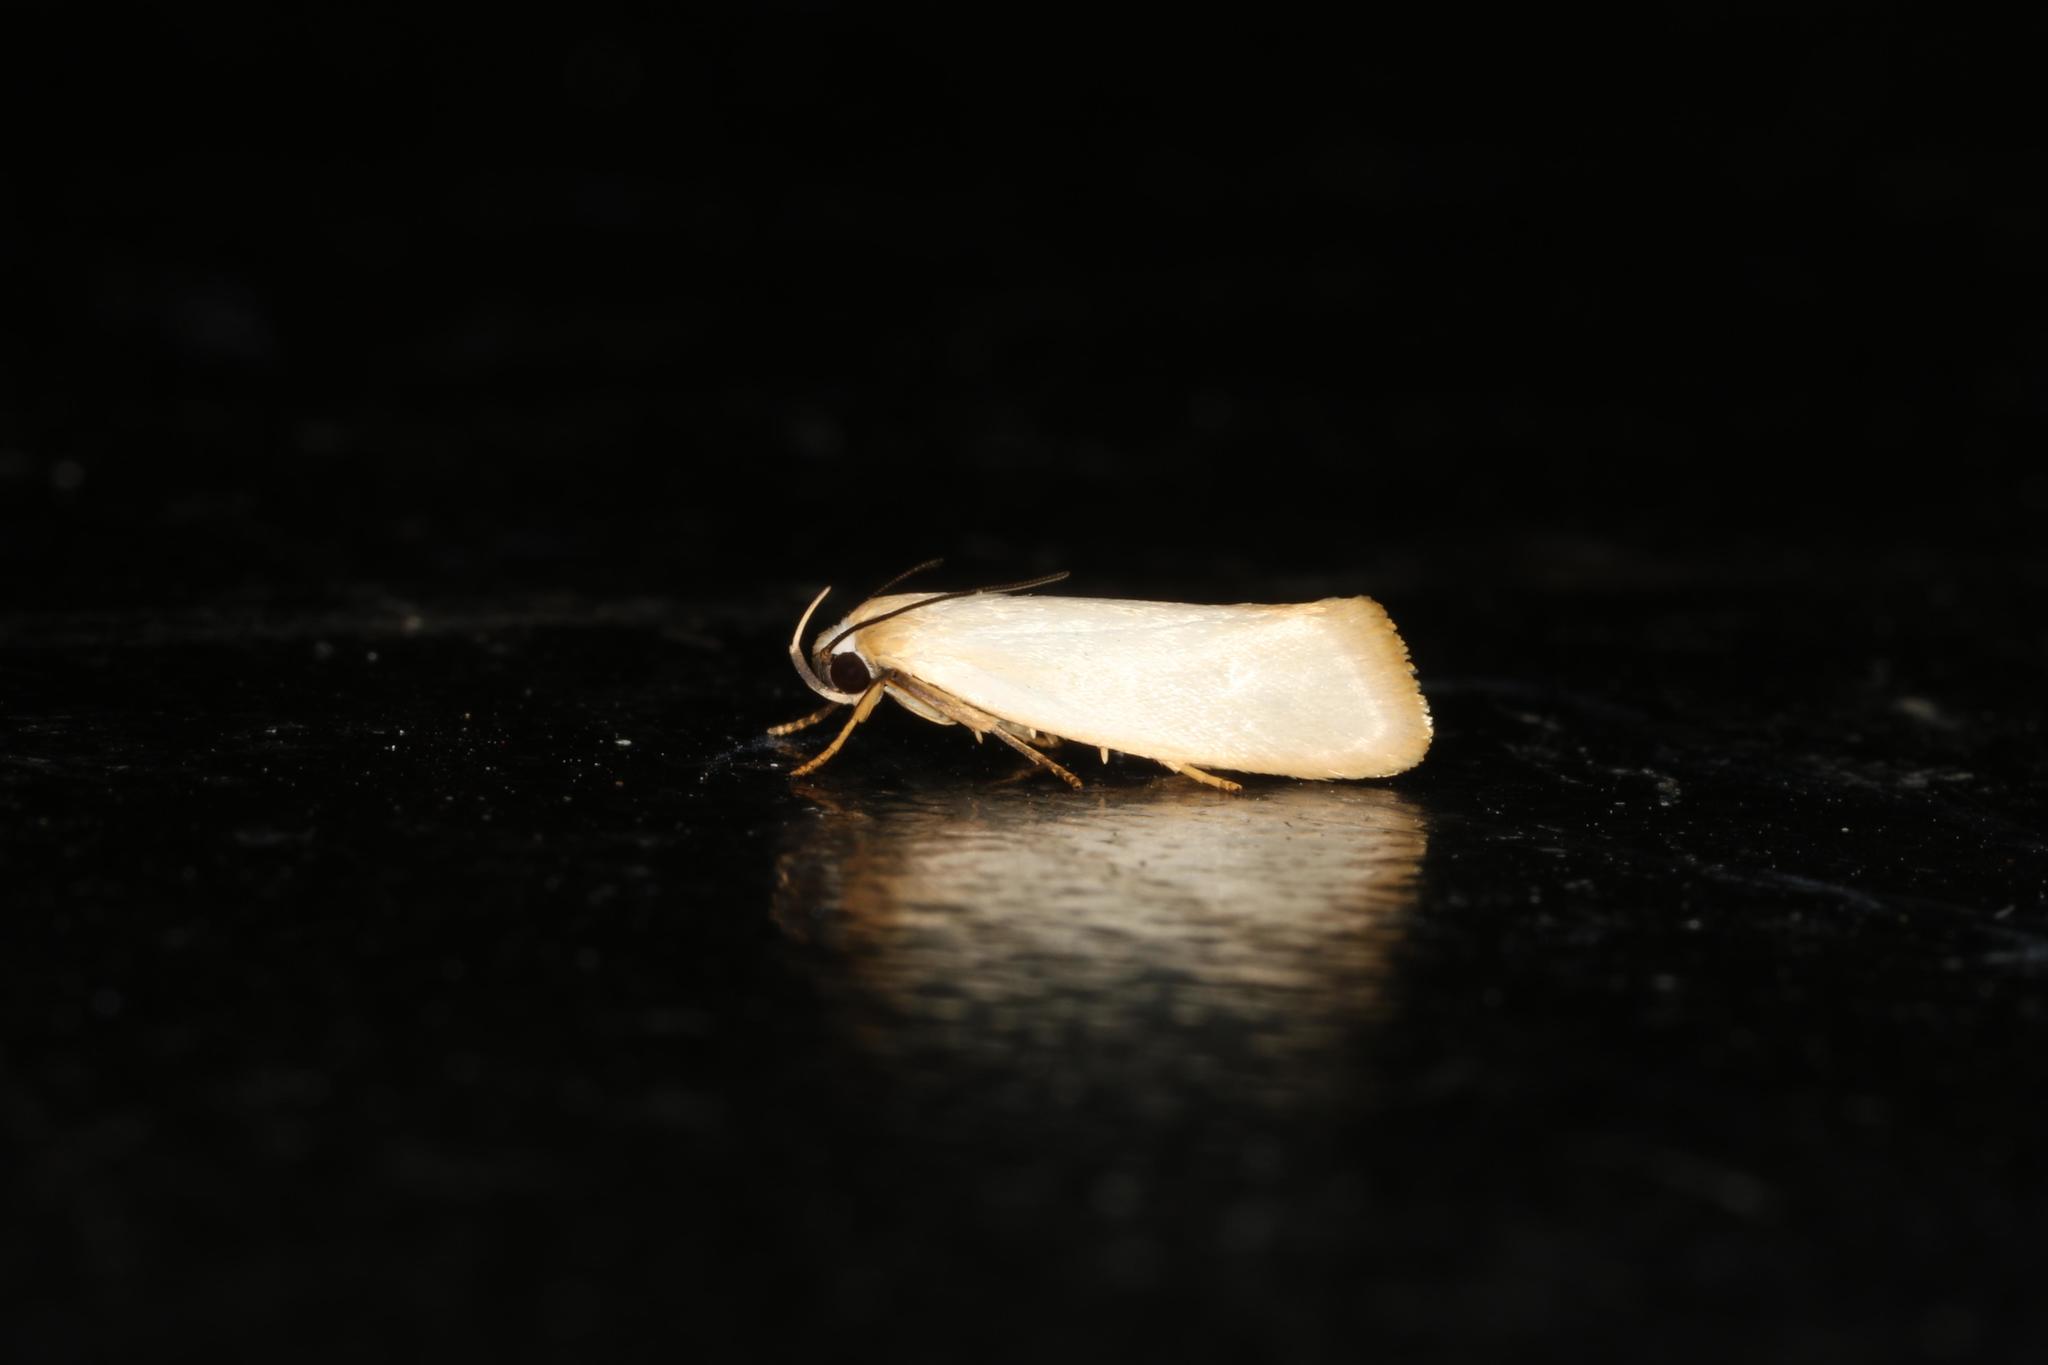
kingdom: Animalia
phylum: Arthropoda
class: Insecta
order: Lepidoptera
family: Xyloryctidae
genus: Xylorycta
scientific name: Xylorycta assimilis
